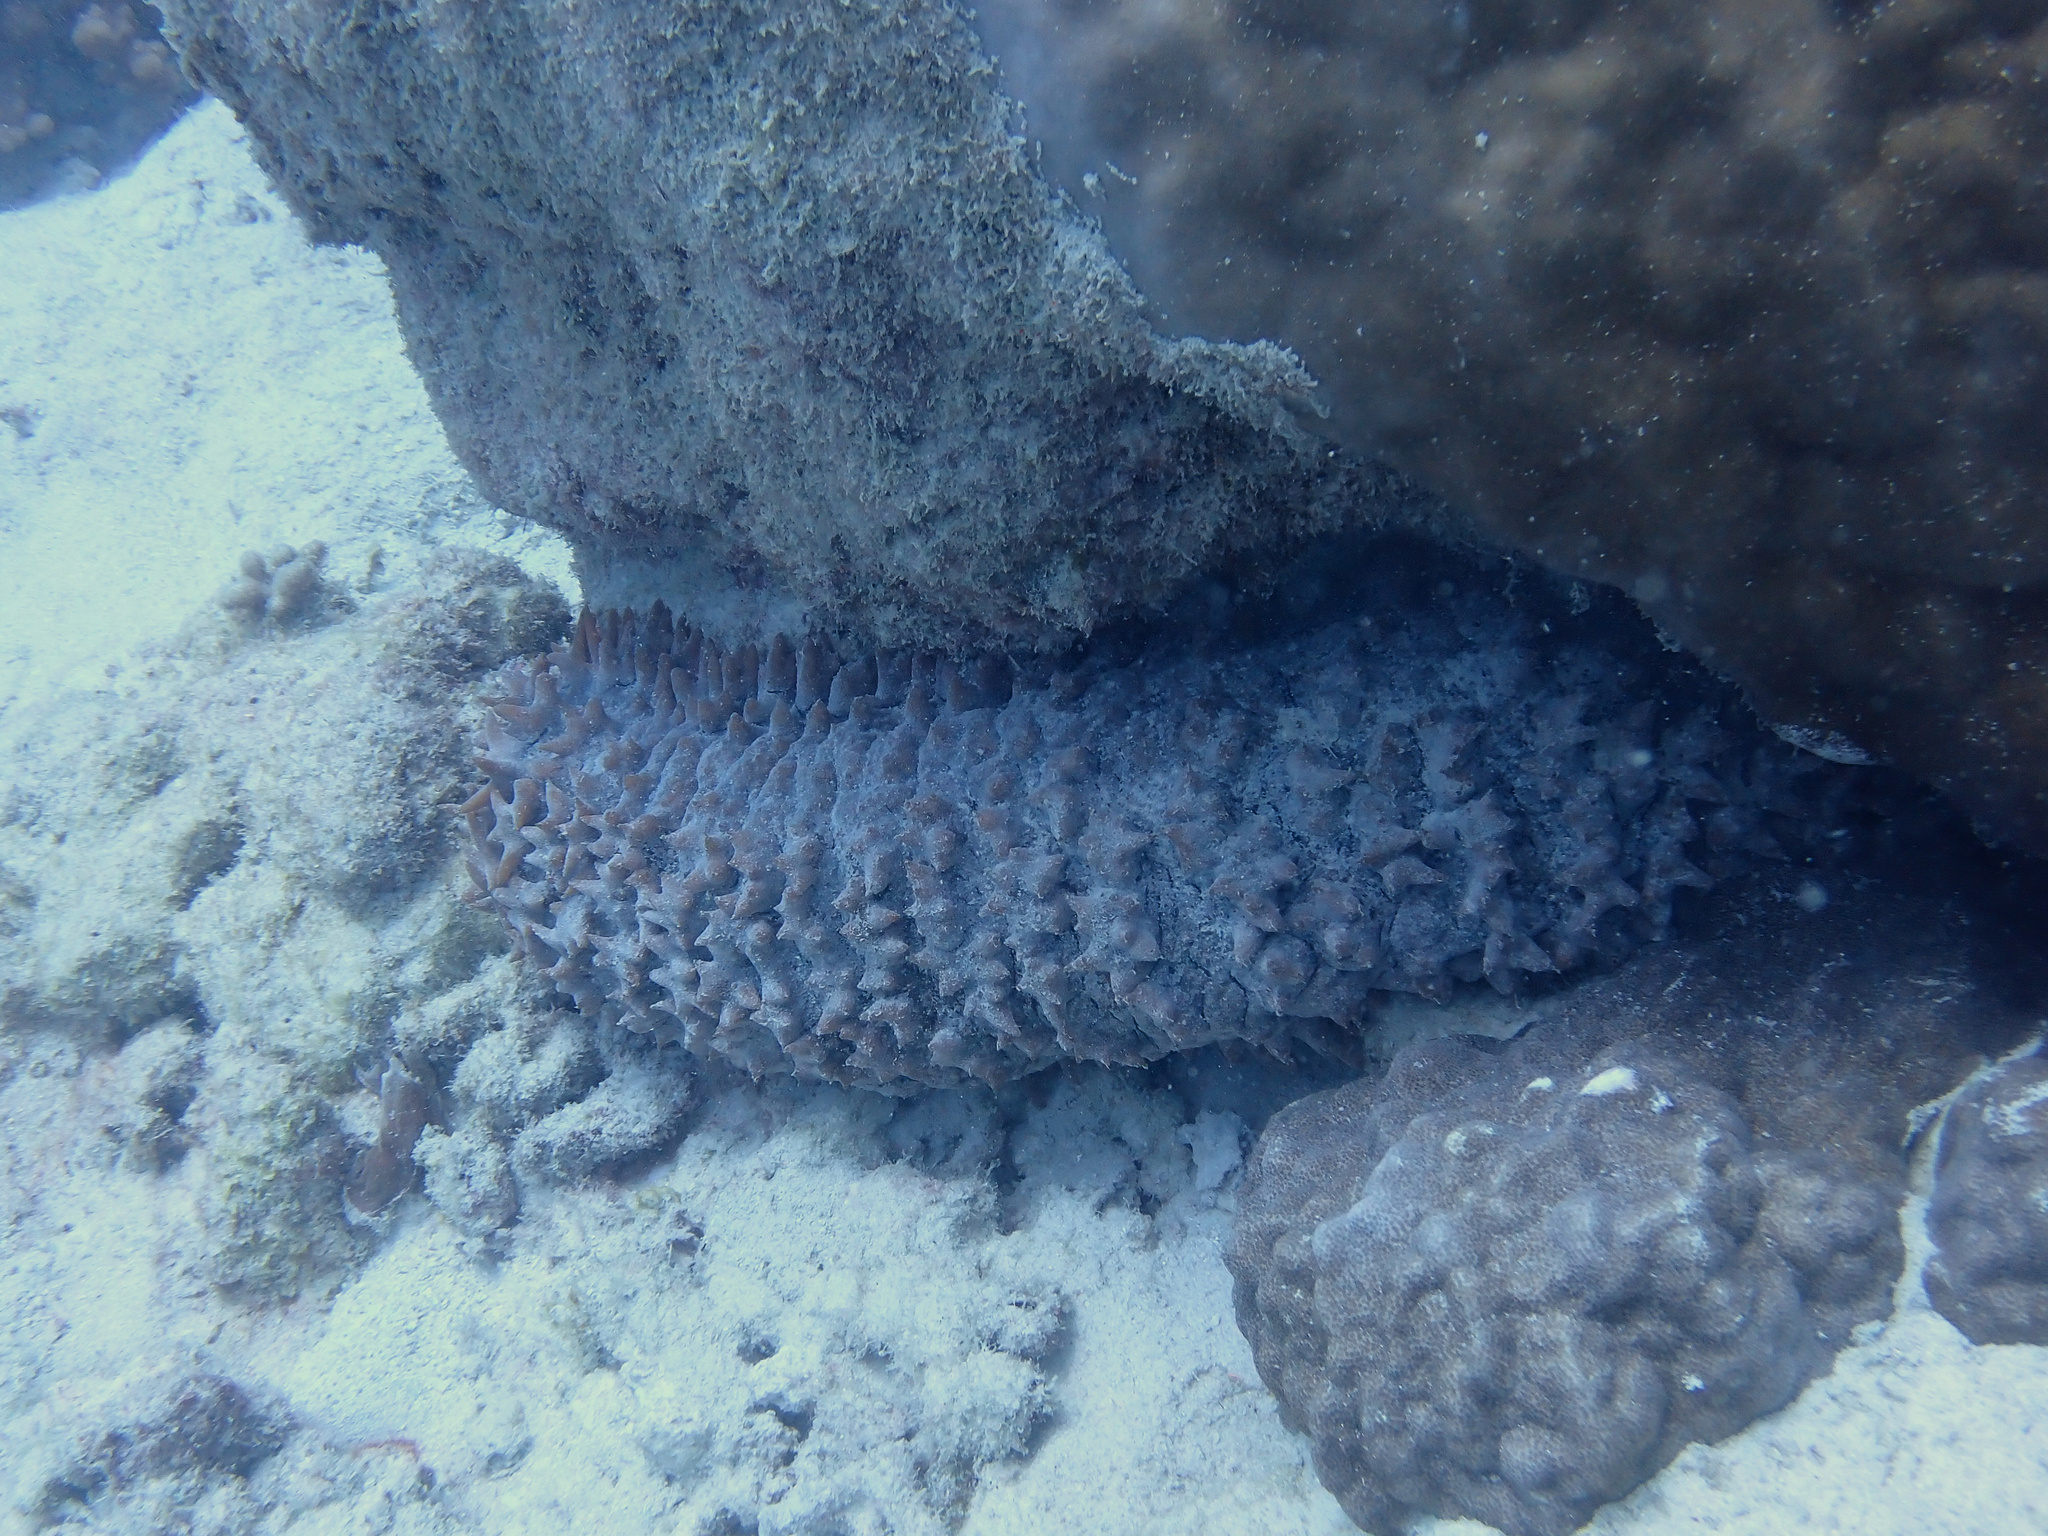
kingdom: Animalia
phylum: Echinodermata
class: Holothuroidea
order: Synallactida
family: Stichopodidae
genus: Thelenota
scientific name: Thelenota ananas
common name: Prickly redfish
